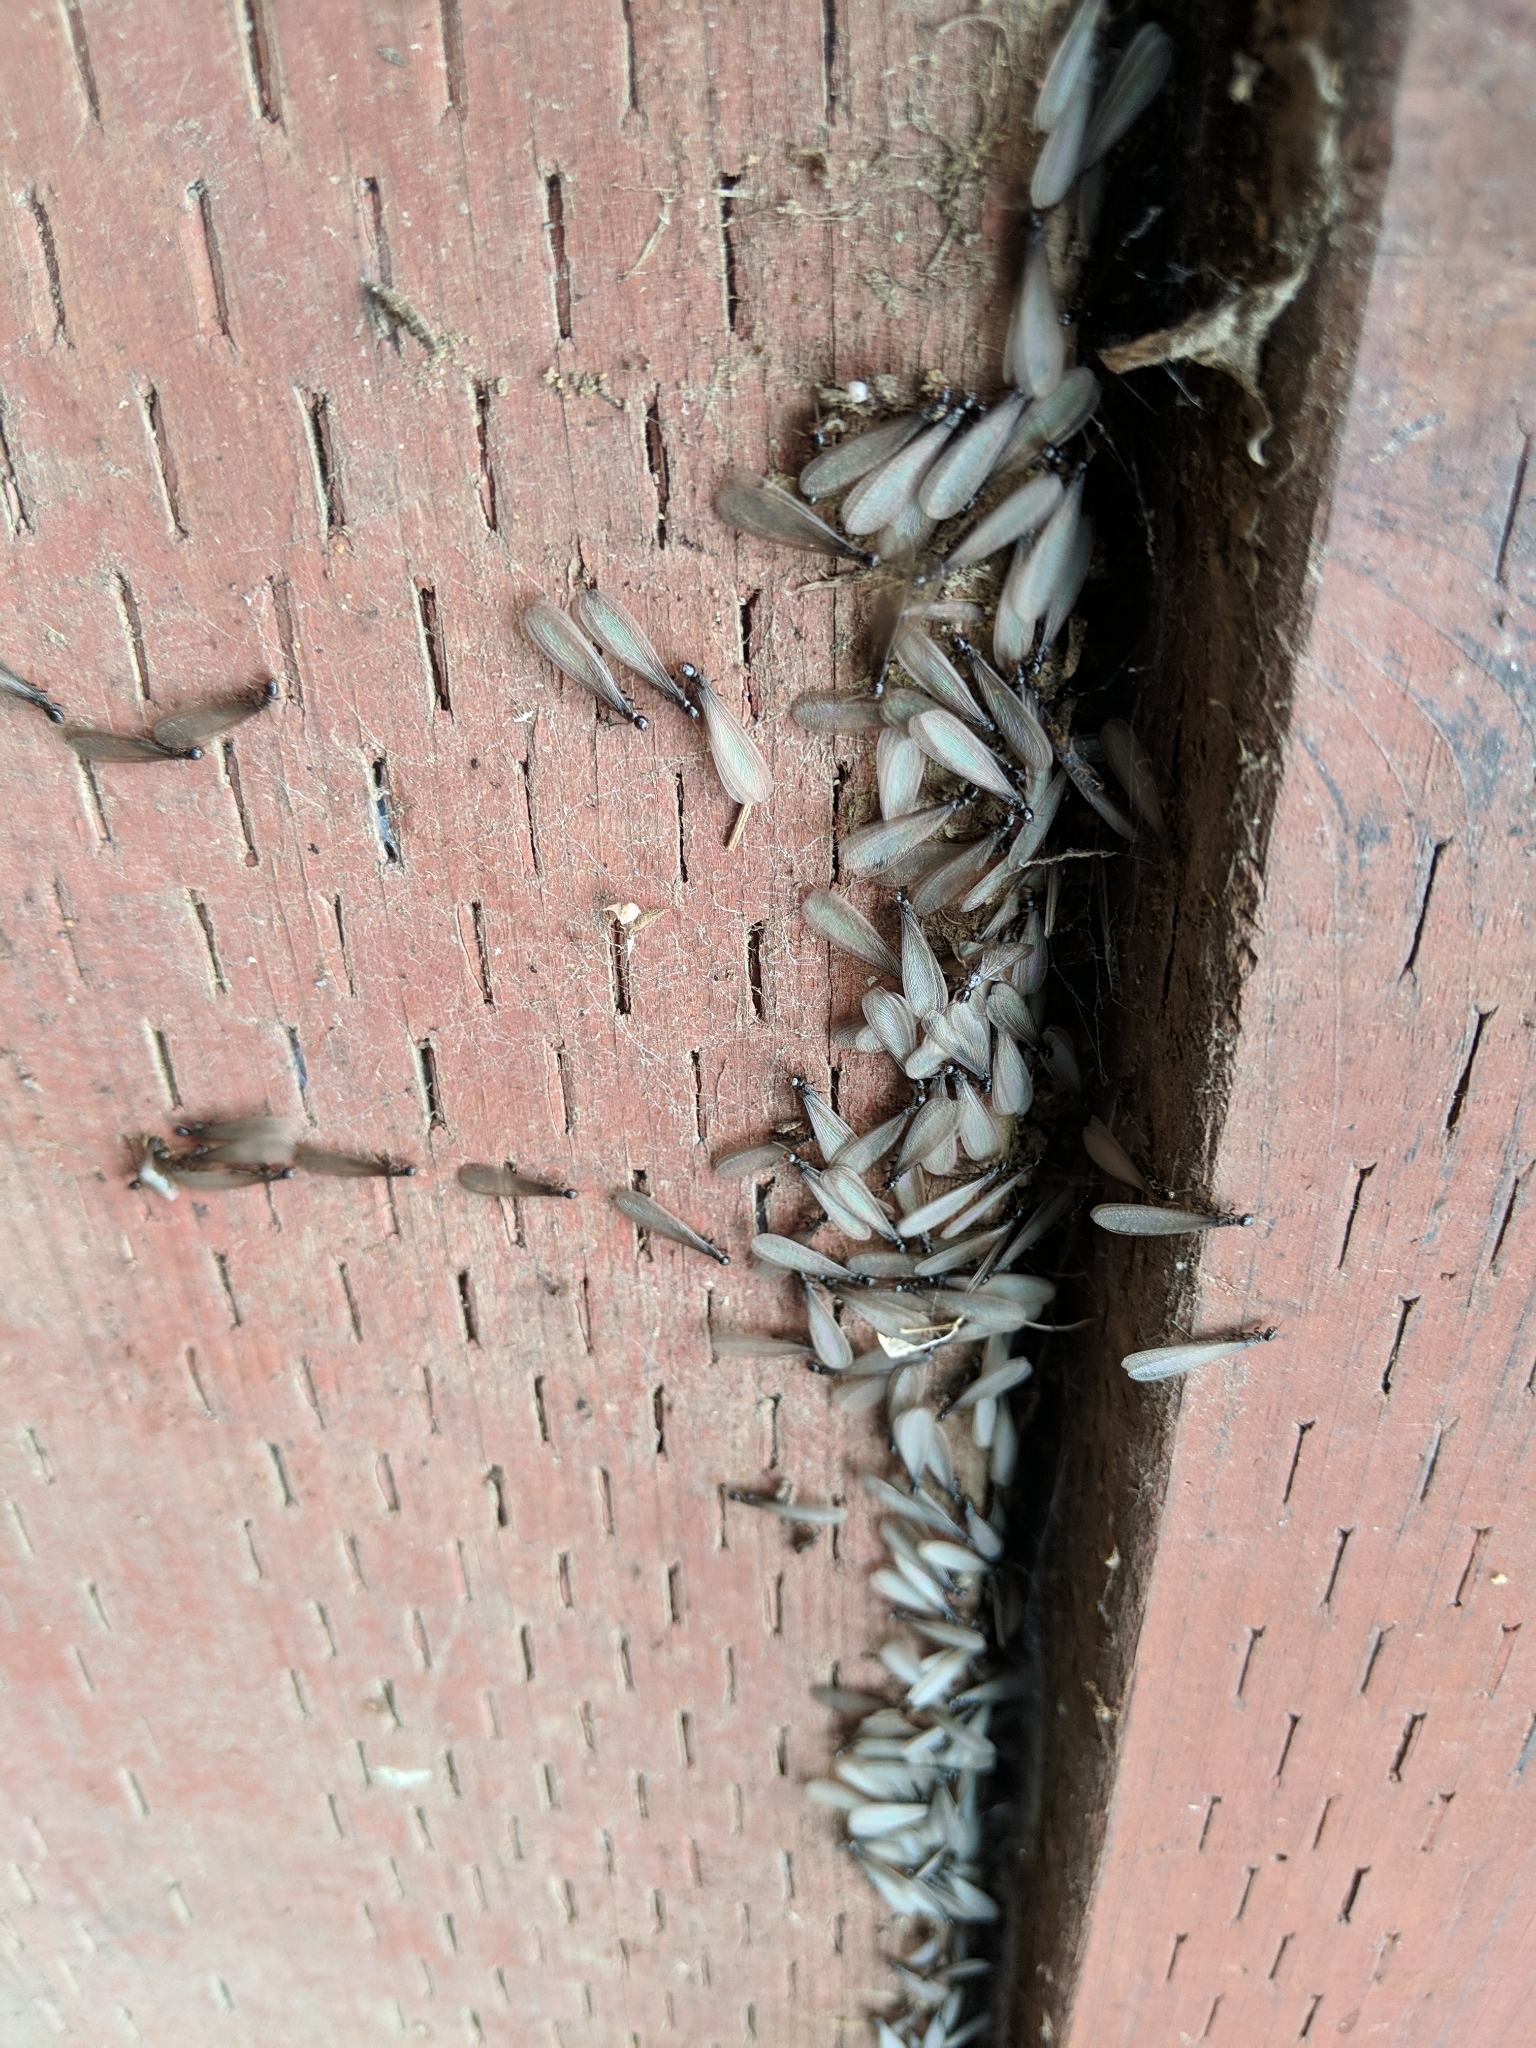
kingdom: Animalia
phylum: Arthropoda
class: Insecta
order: Blattodea
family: Rhinotermitidae
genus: Reticulitermes
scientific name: Reticulitermes hesperus
